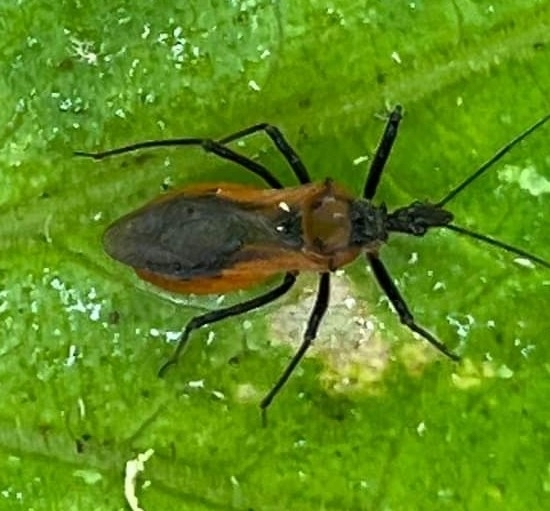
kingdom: Animalia
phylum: Arthropoda
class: Insecta
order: Hemiptera
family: Reduviidae
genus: Gminatus
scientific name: Gminatus australis
